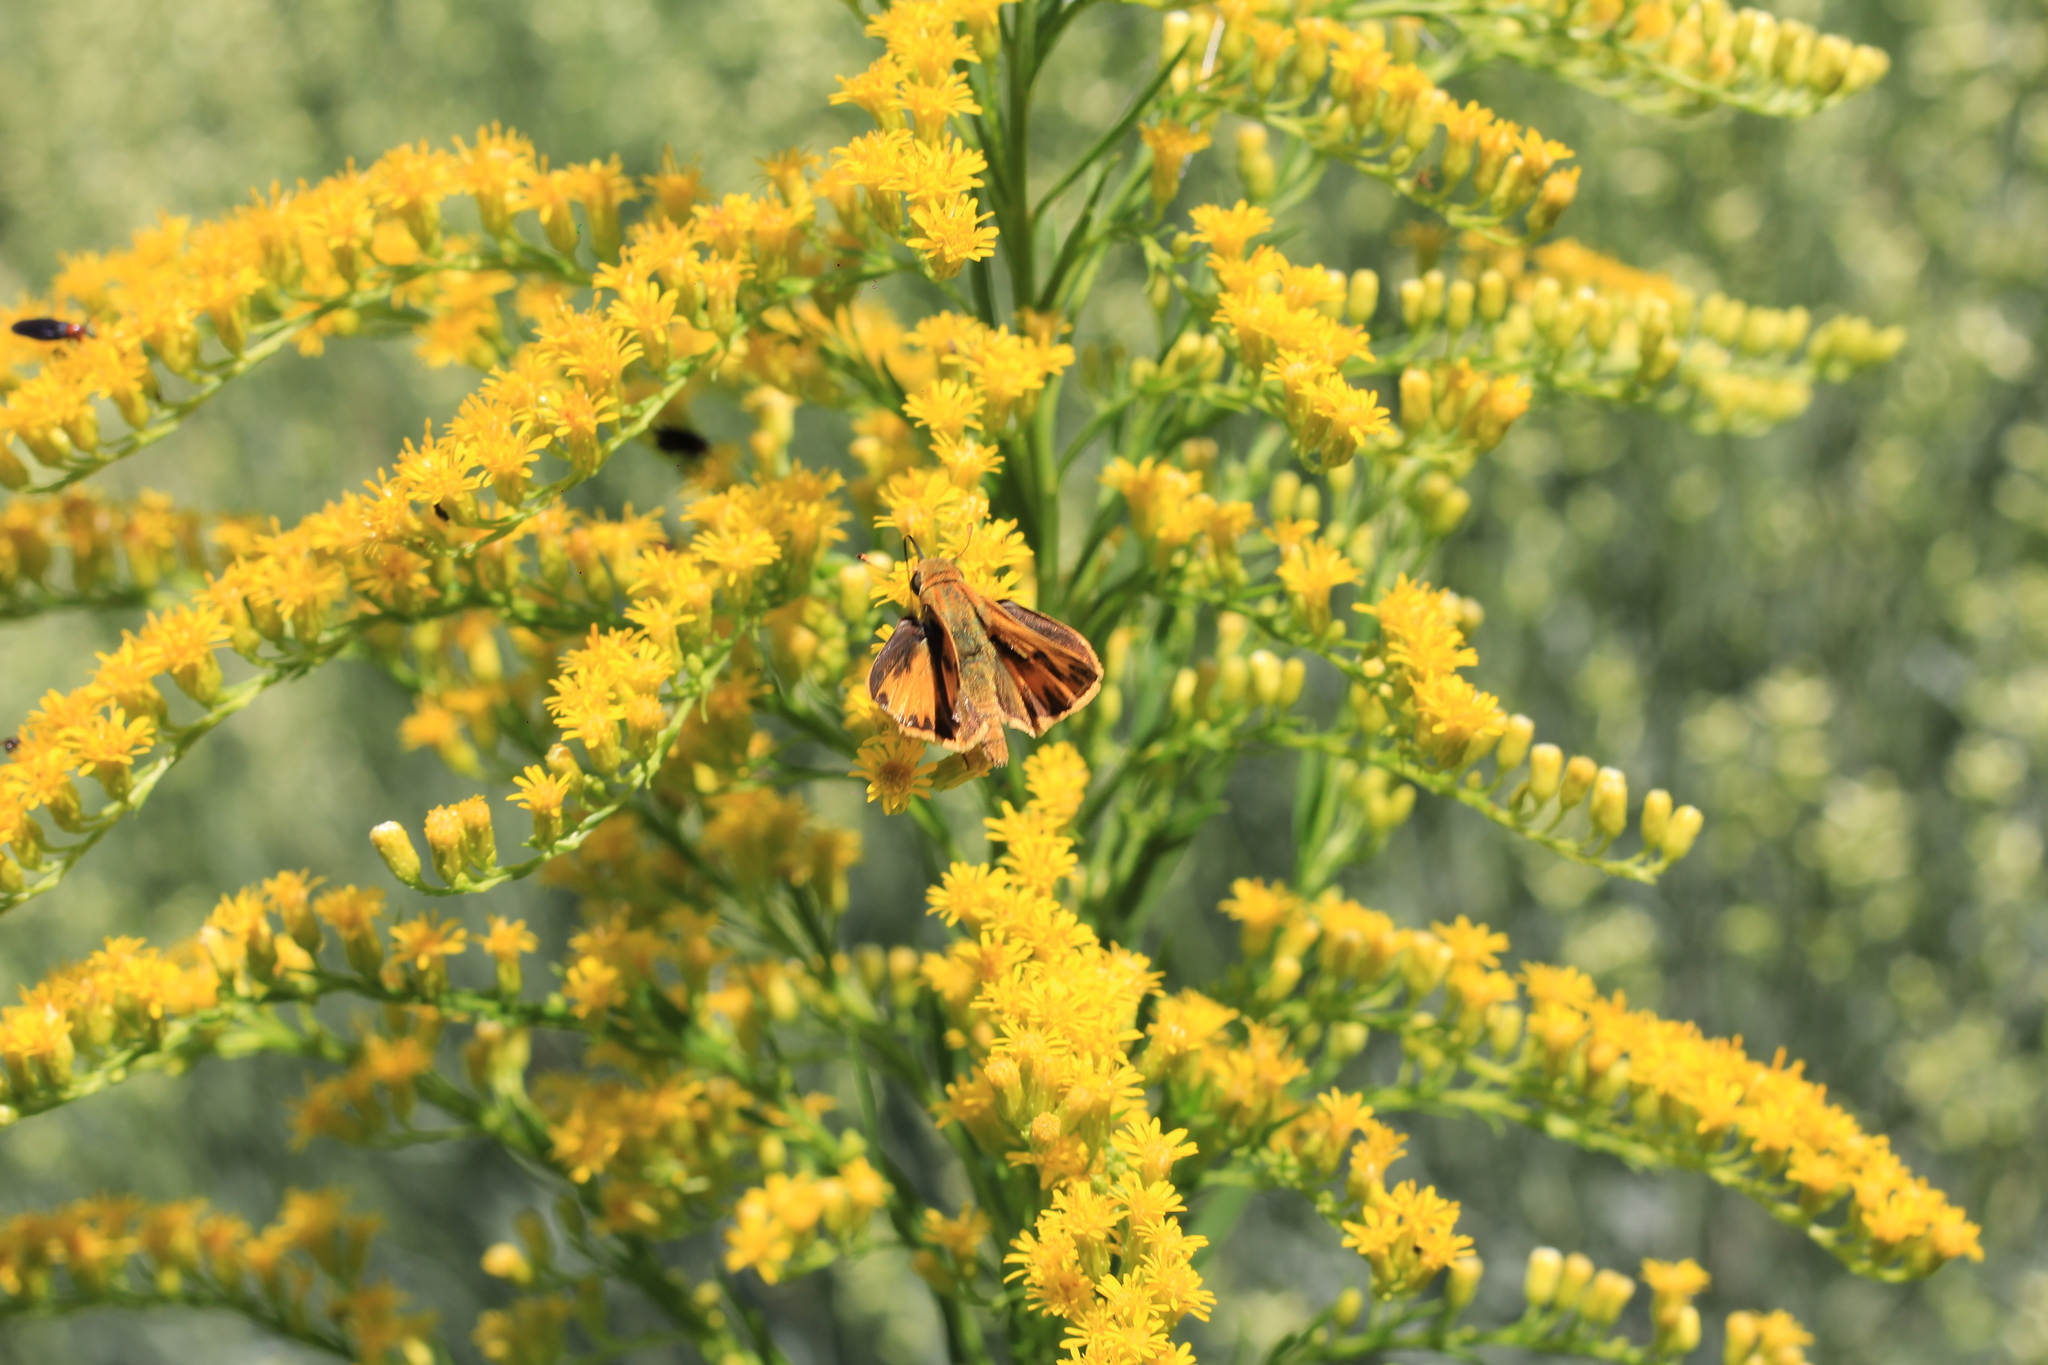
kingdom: Animalia
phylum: Arthropoda
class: Insecta
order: Lepidoptera
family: Hesperiidae
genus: Hylephila
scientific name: Hylephila phyleus
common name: Fiery skipper
